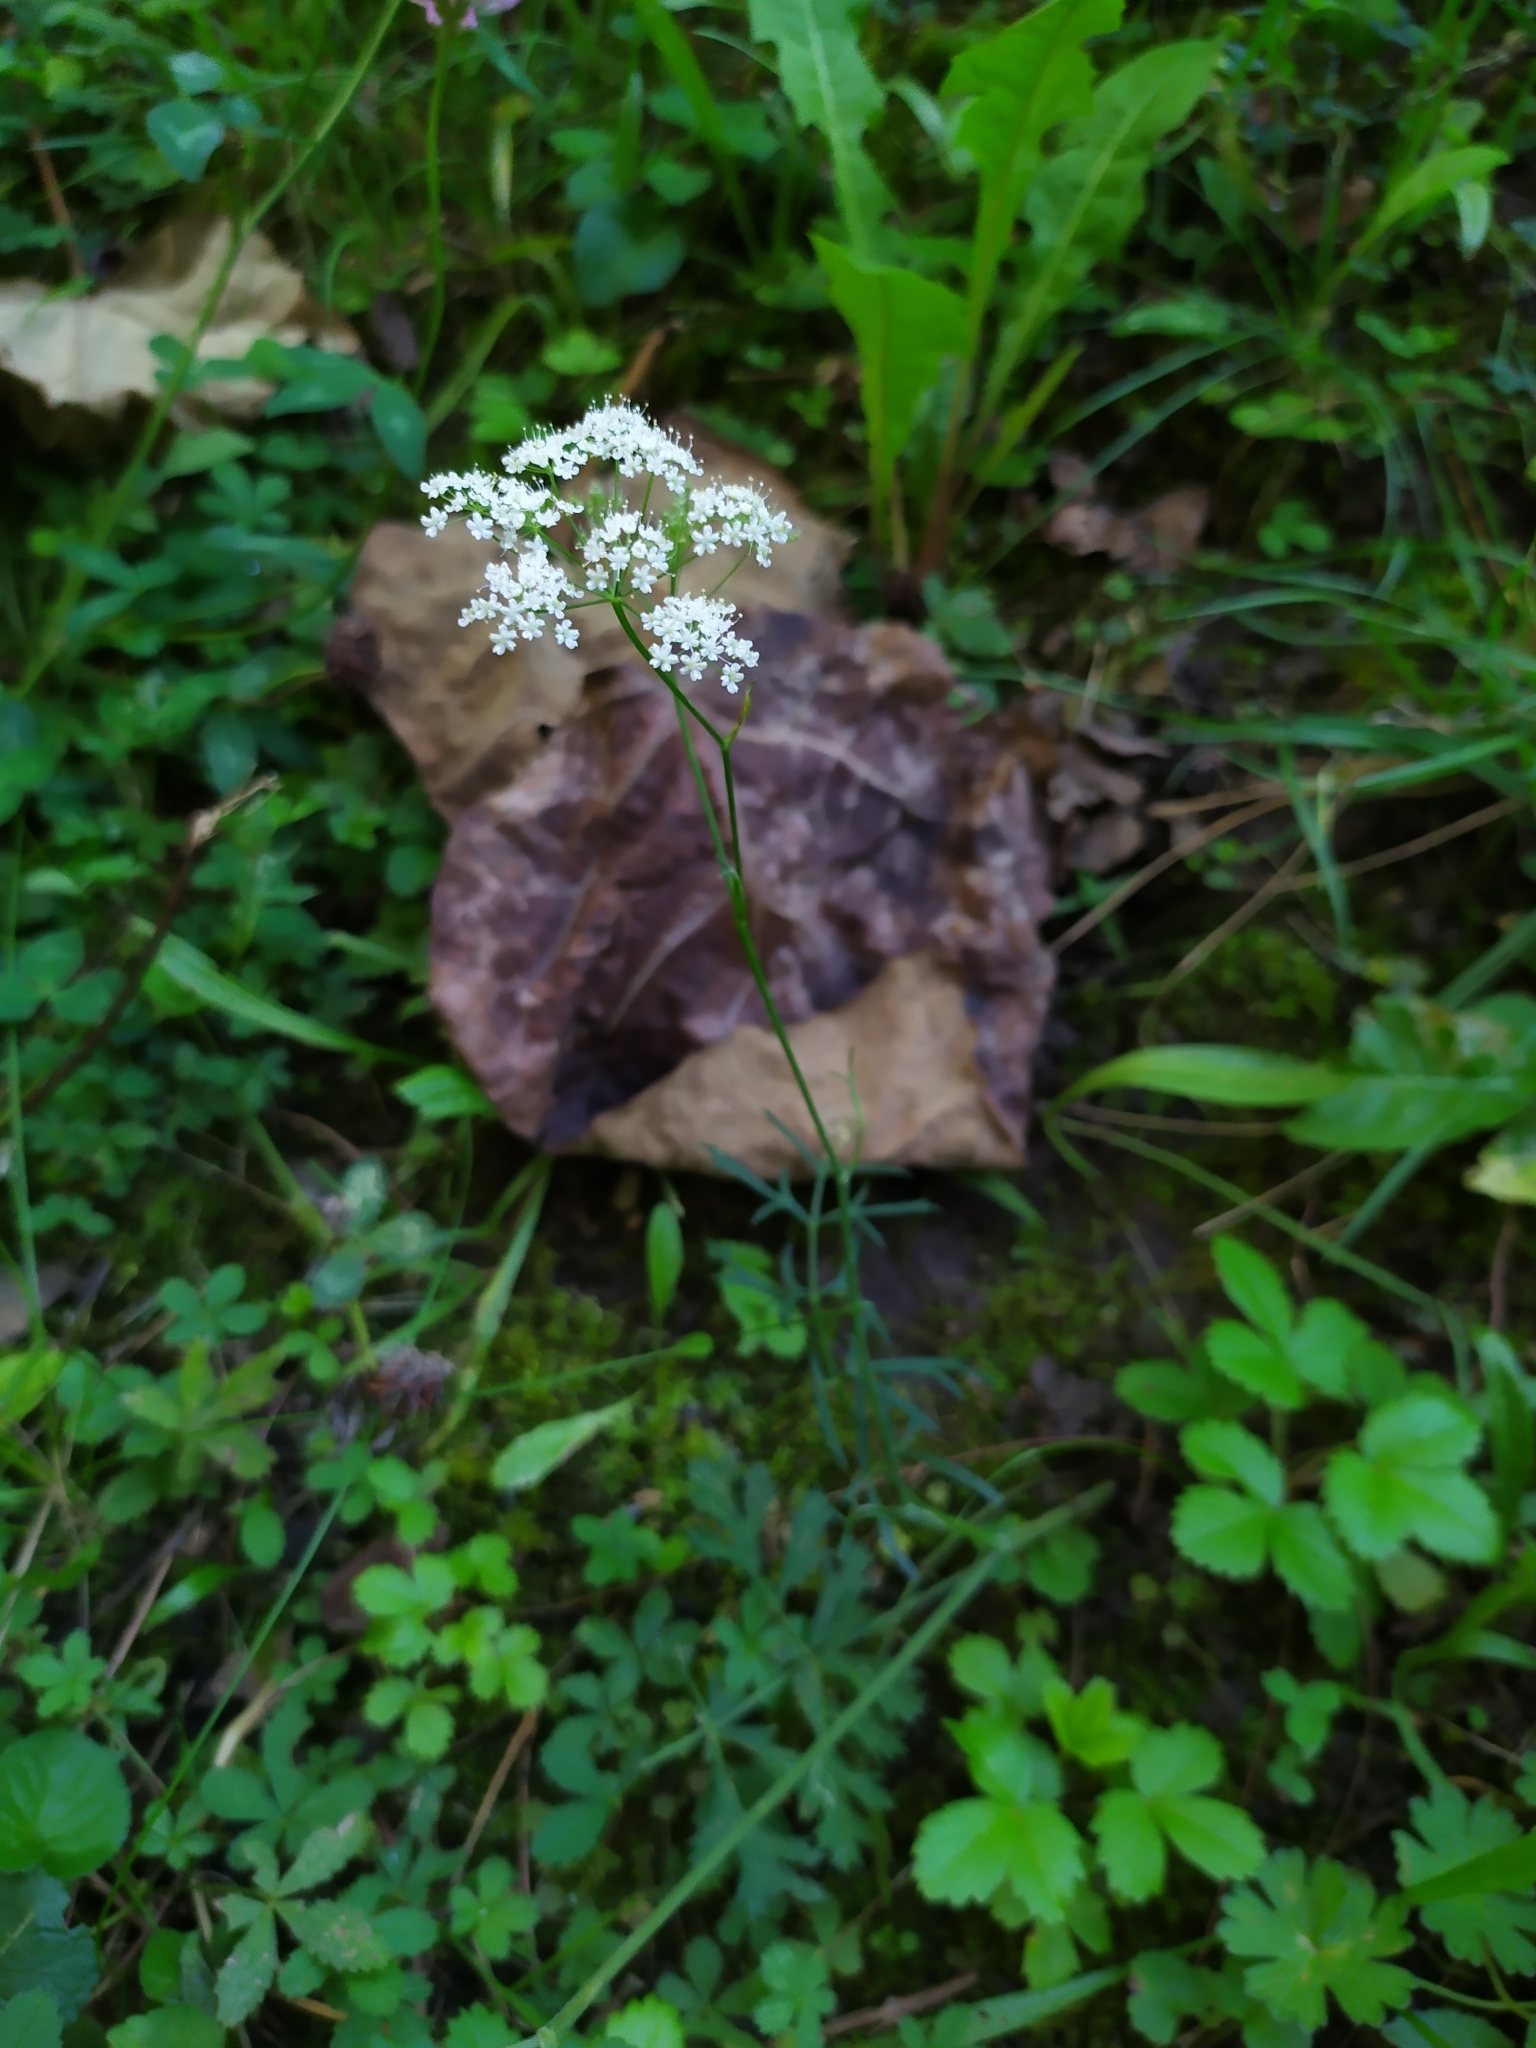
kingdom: Plantae
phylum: Tracheophyta
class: Magnoliopsida
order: Apiales
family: Apiaceae
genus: Pimpinella
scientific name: Pimpinella saxifraga
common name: Burnet-saxifrage
